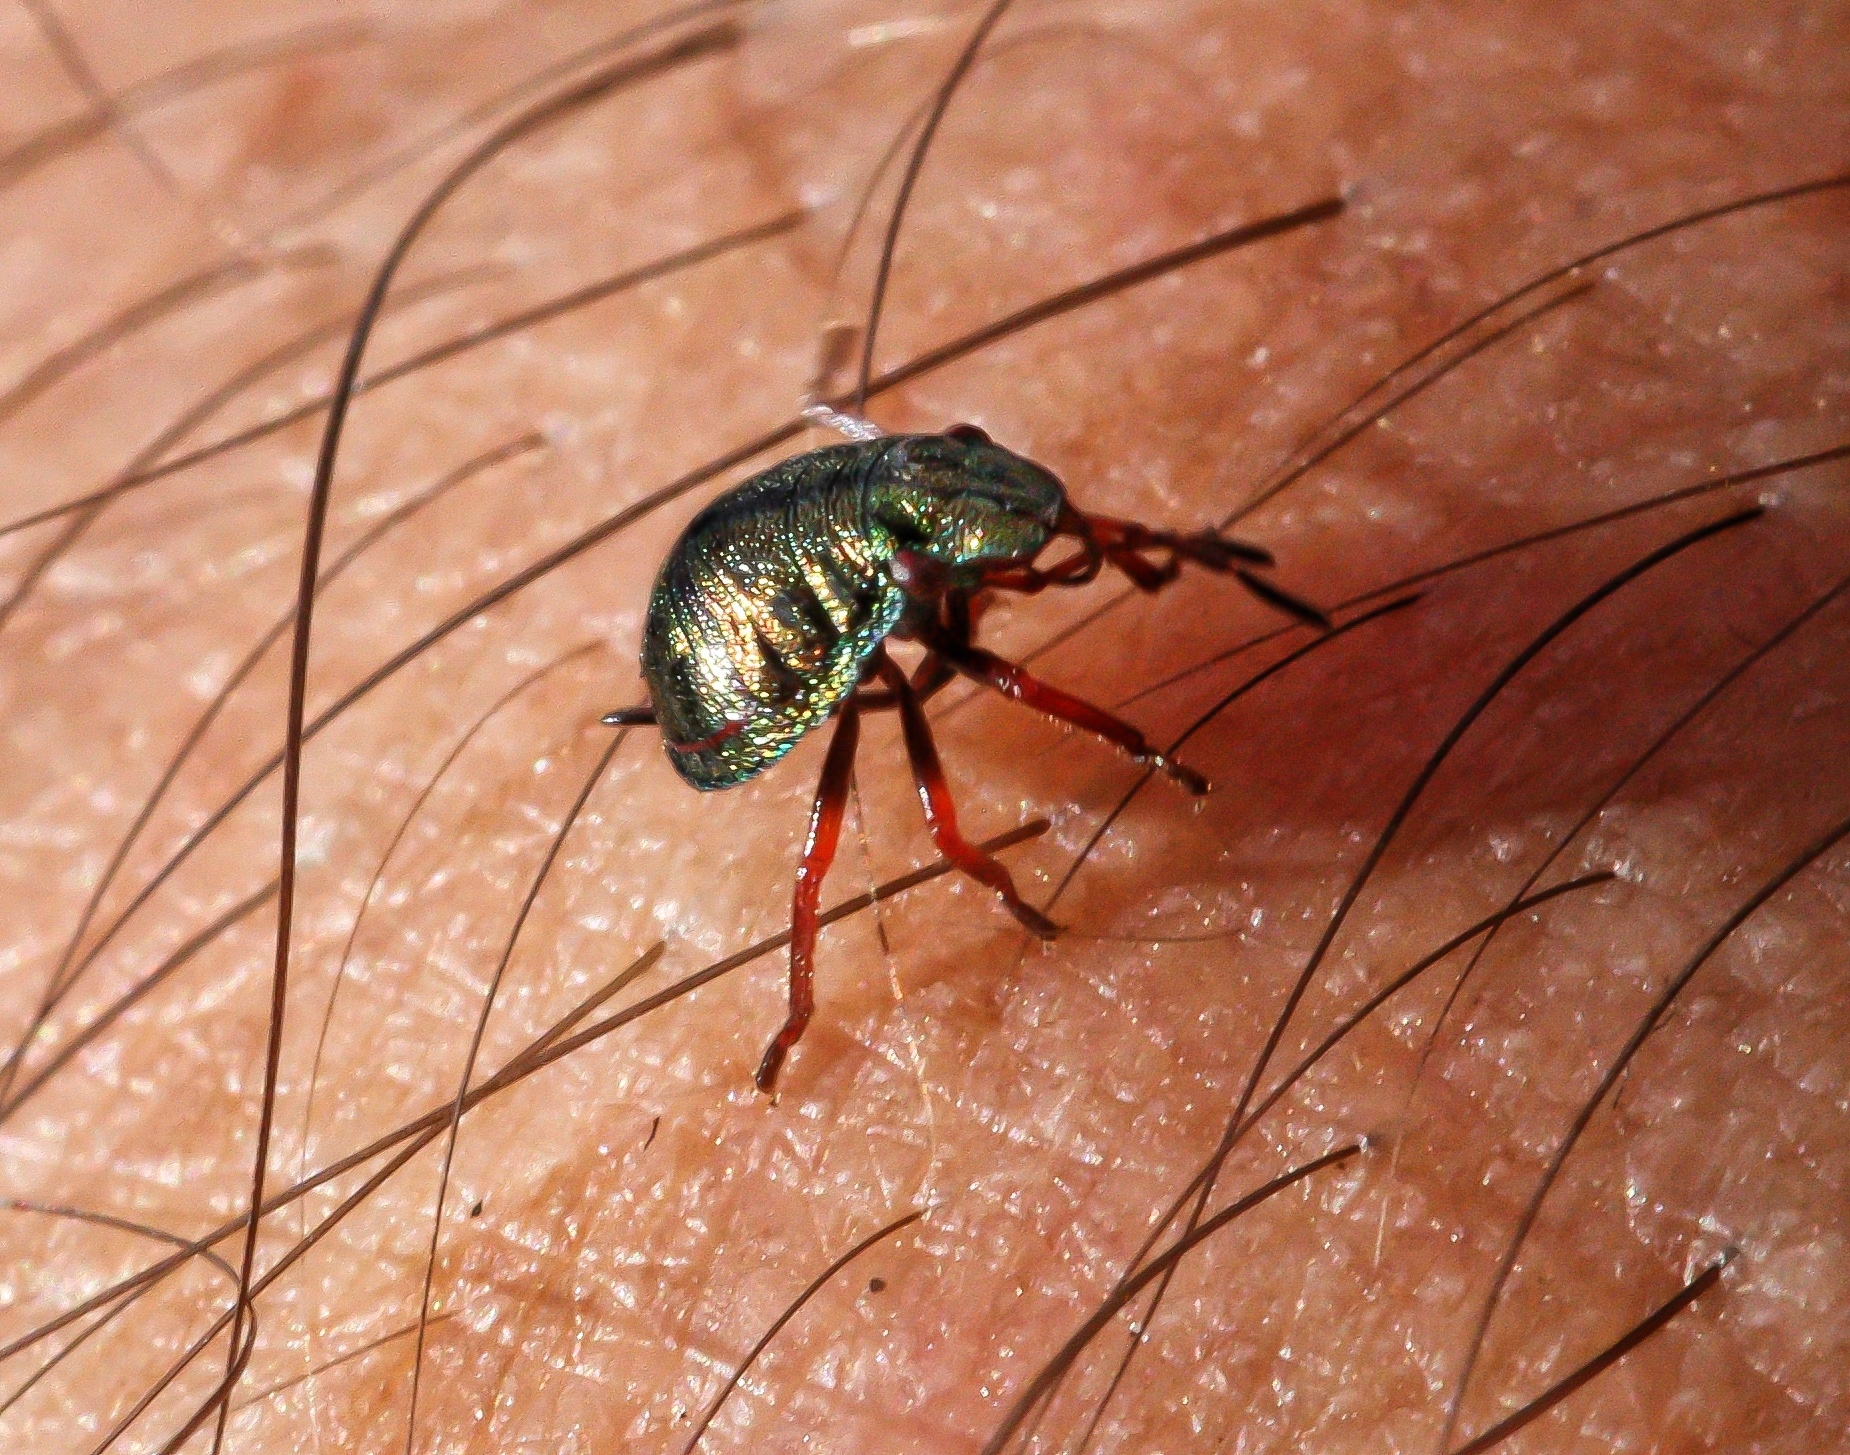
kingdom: Animalia
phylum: Arthropoda
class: Insecta
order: Hemiptera
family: Scutelleridae
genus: Solenosthedium
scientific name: Solenosthedium bilunatum
